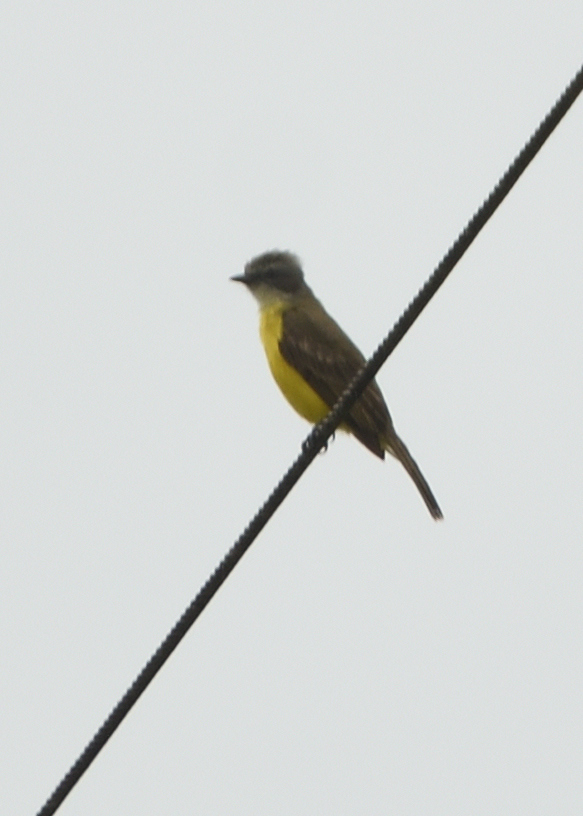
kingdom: Animalia
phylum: Chordata
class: Aves
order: Passeriformes
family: Tyrannidae
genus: Myiozetetes
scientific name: Myiozetetes granadensis
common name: Gray-capped flycatcher
